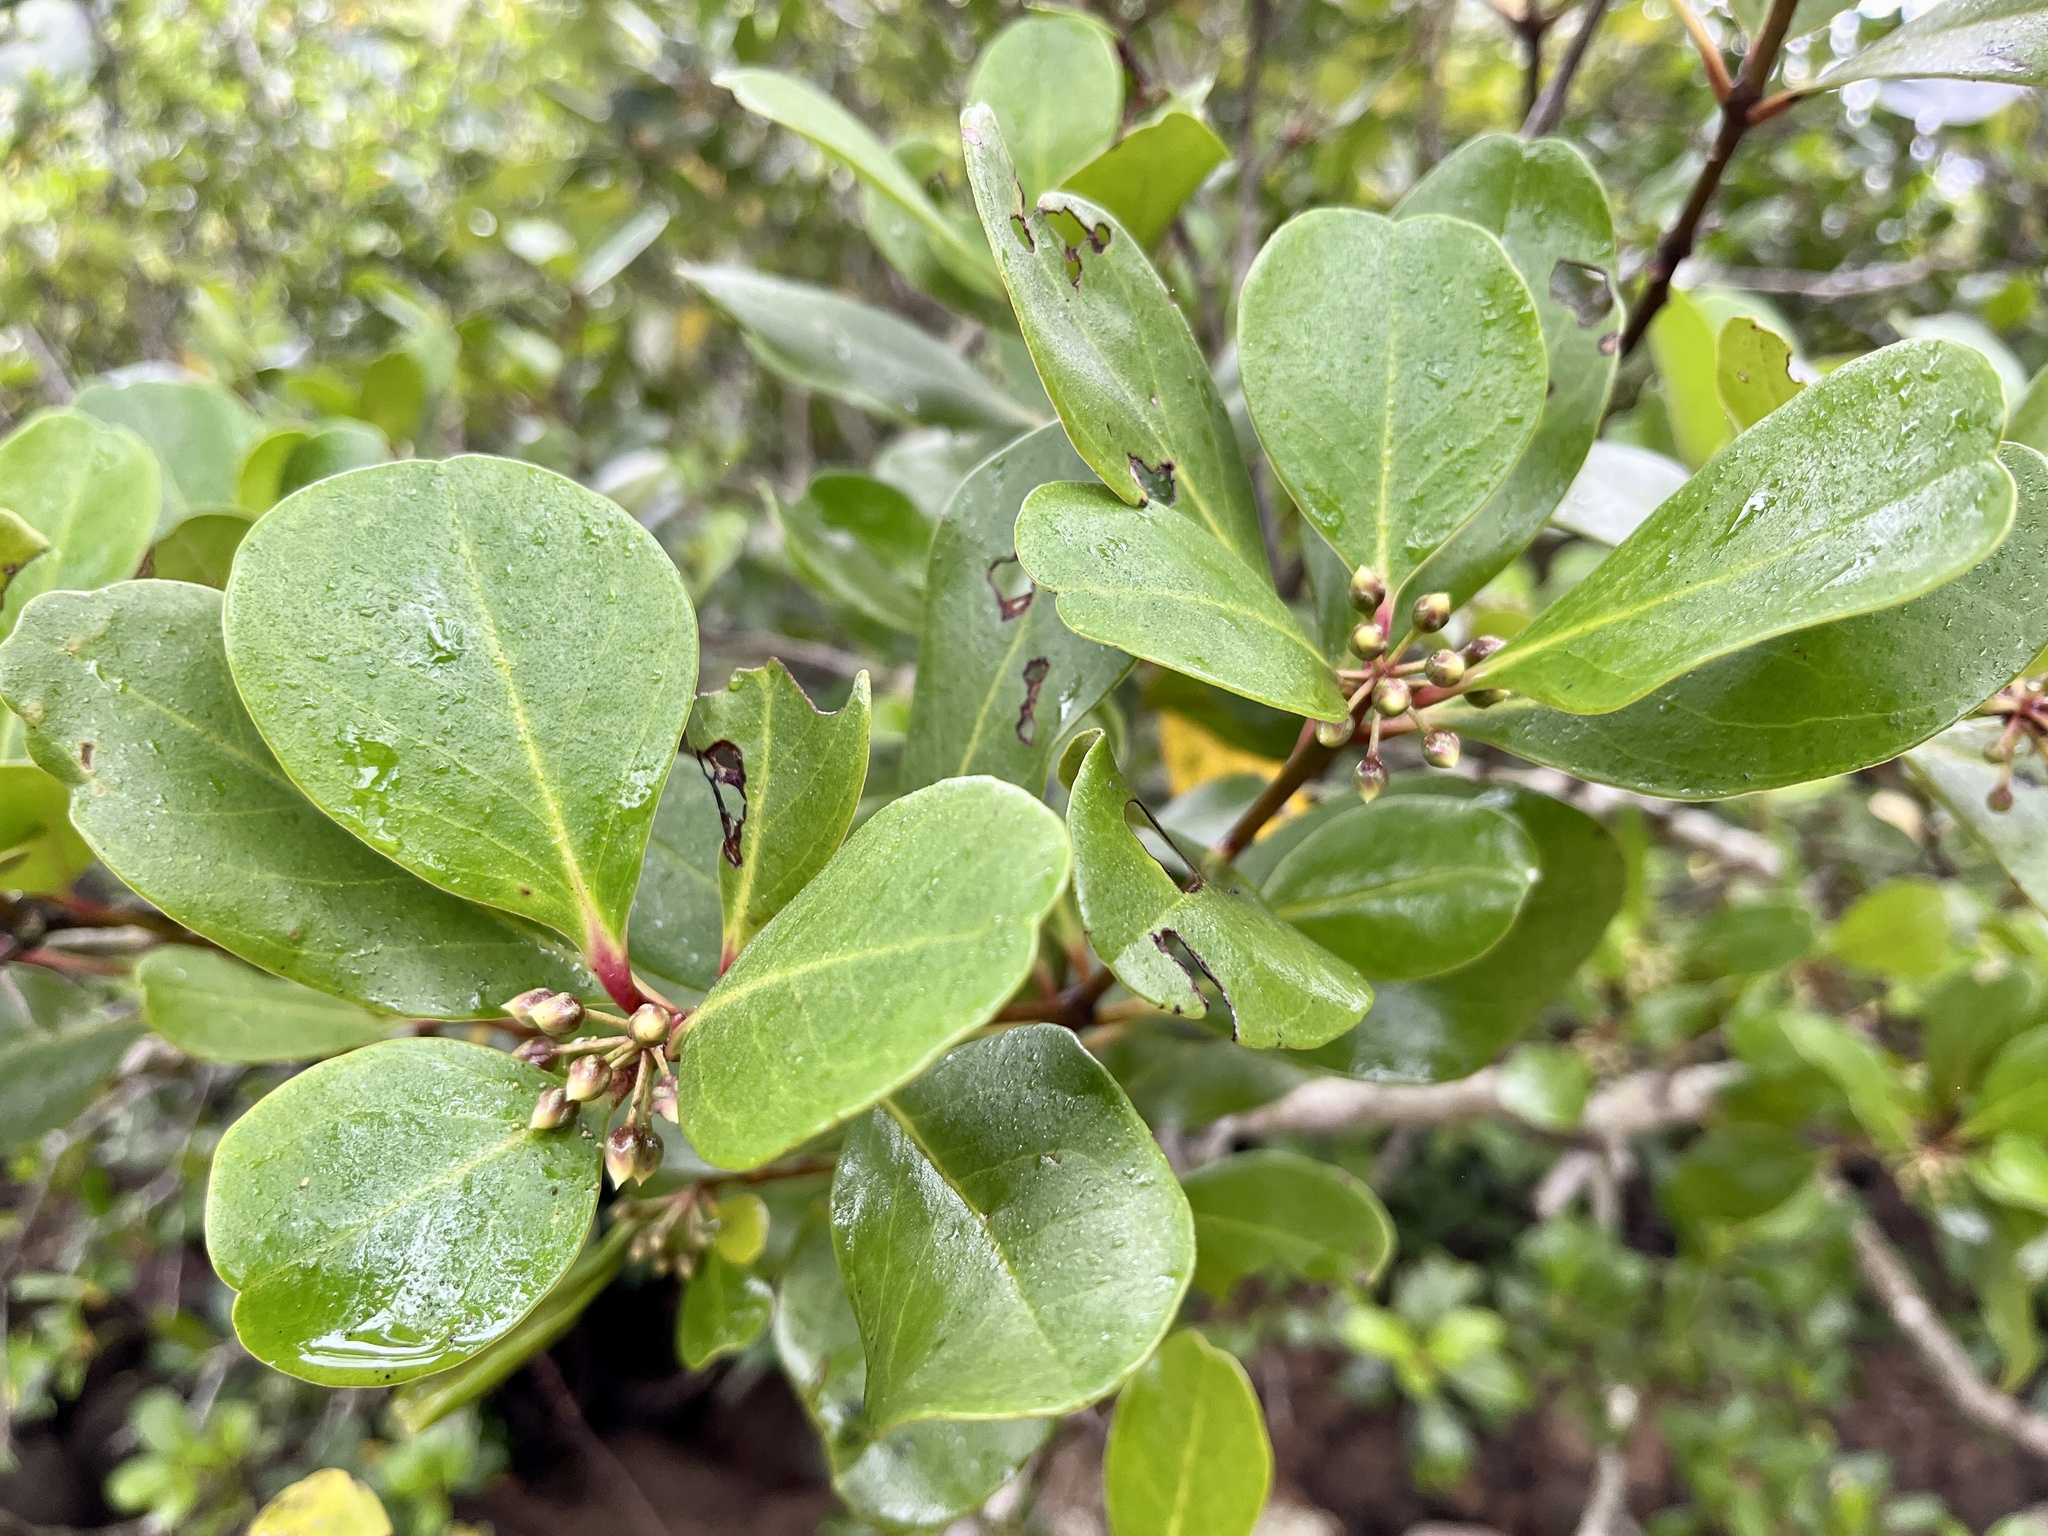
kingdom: Plantae
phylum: Tracheophyta
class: Magnoliopsida
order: Ericales
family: Primulaceae
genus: Aegiceras
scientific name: Aegiceras corniculatum
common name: River mangrove
